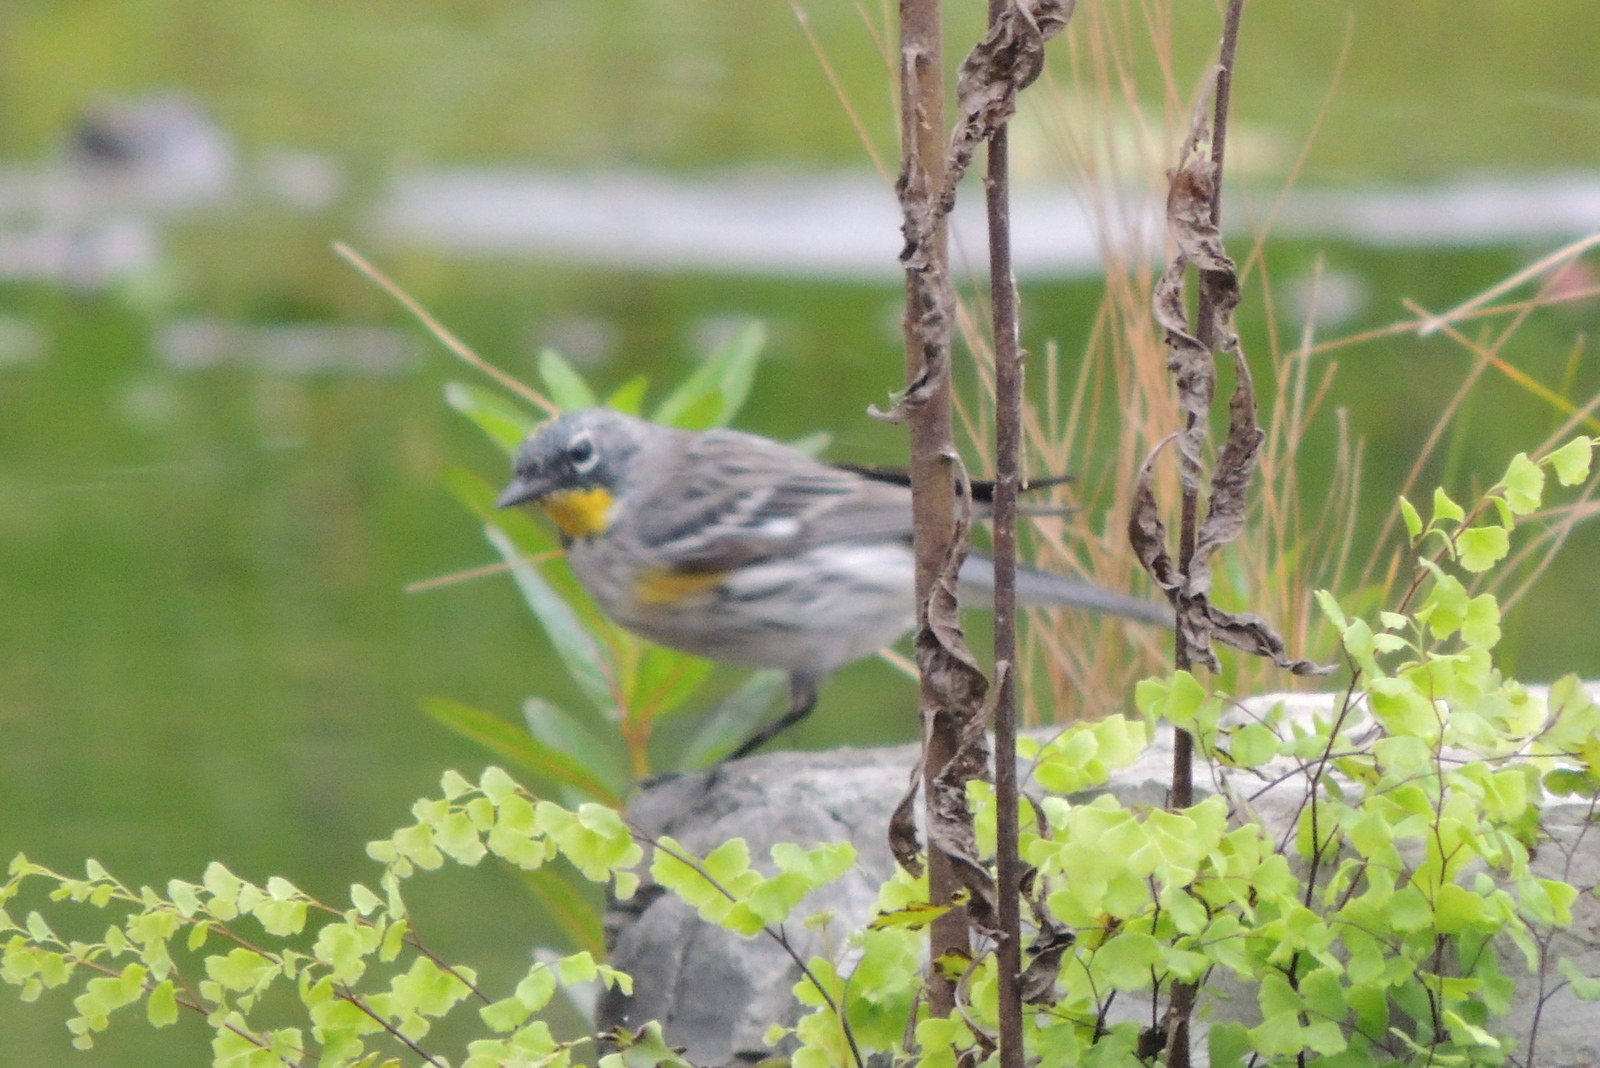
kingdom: Animalia
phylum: Chordata
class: Aves
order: Passeriformes
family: Parulidae
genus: Setophaga
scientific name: Setophaga coronata
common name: Myrtle warbler
